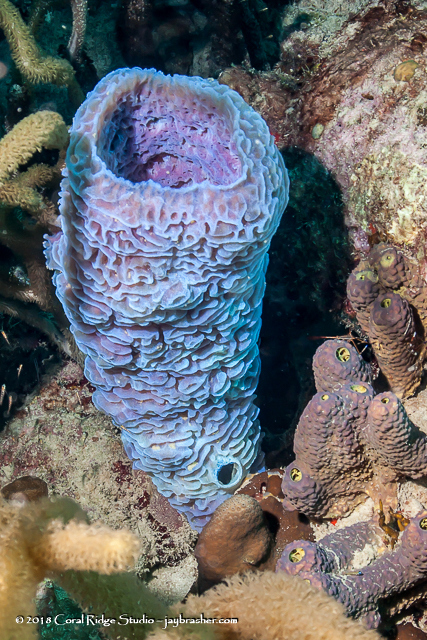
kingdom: Animalia
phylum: Porifera
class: Demospongiae
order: Haplosclerida
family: Callyspongiidae
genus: Callyspongia
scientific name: Callyspongia plicifera
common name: Azure vase sponge
